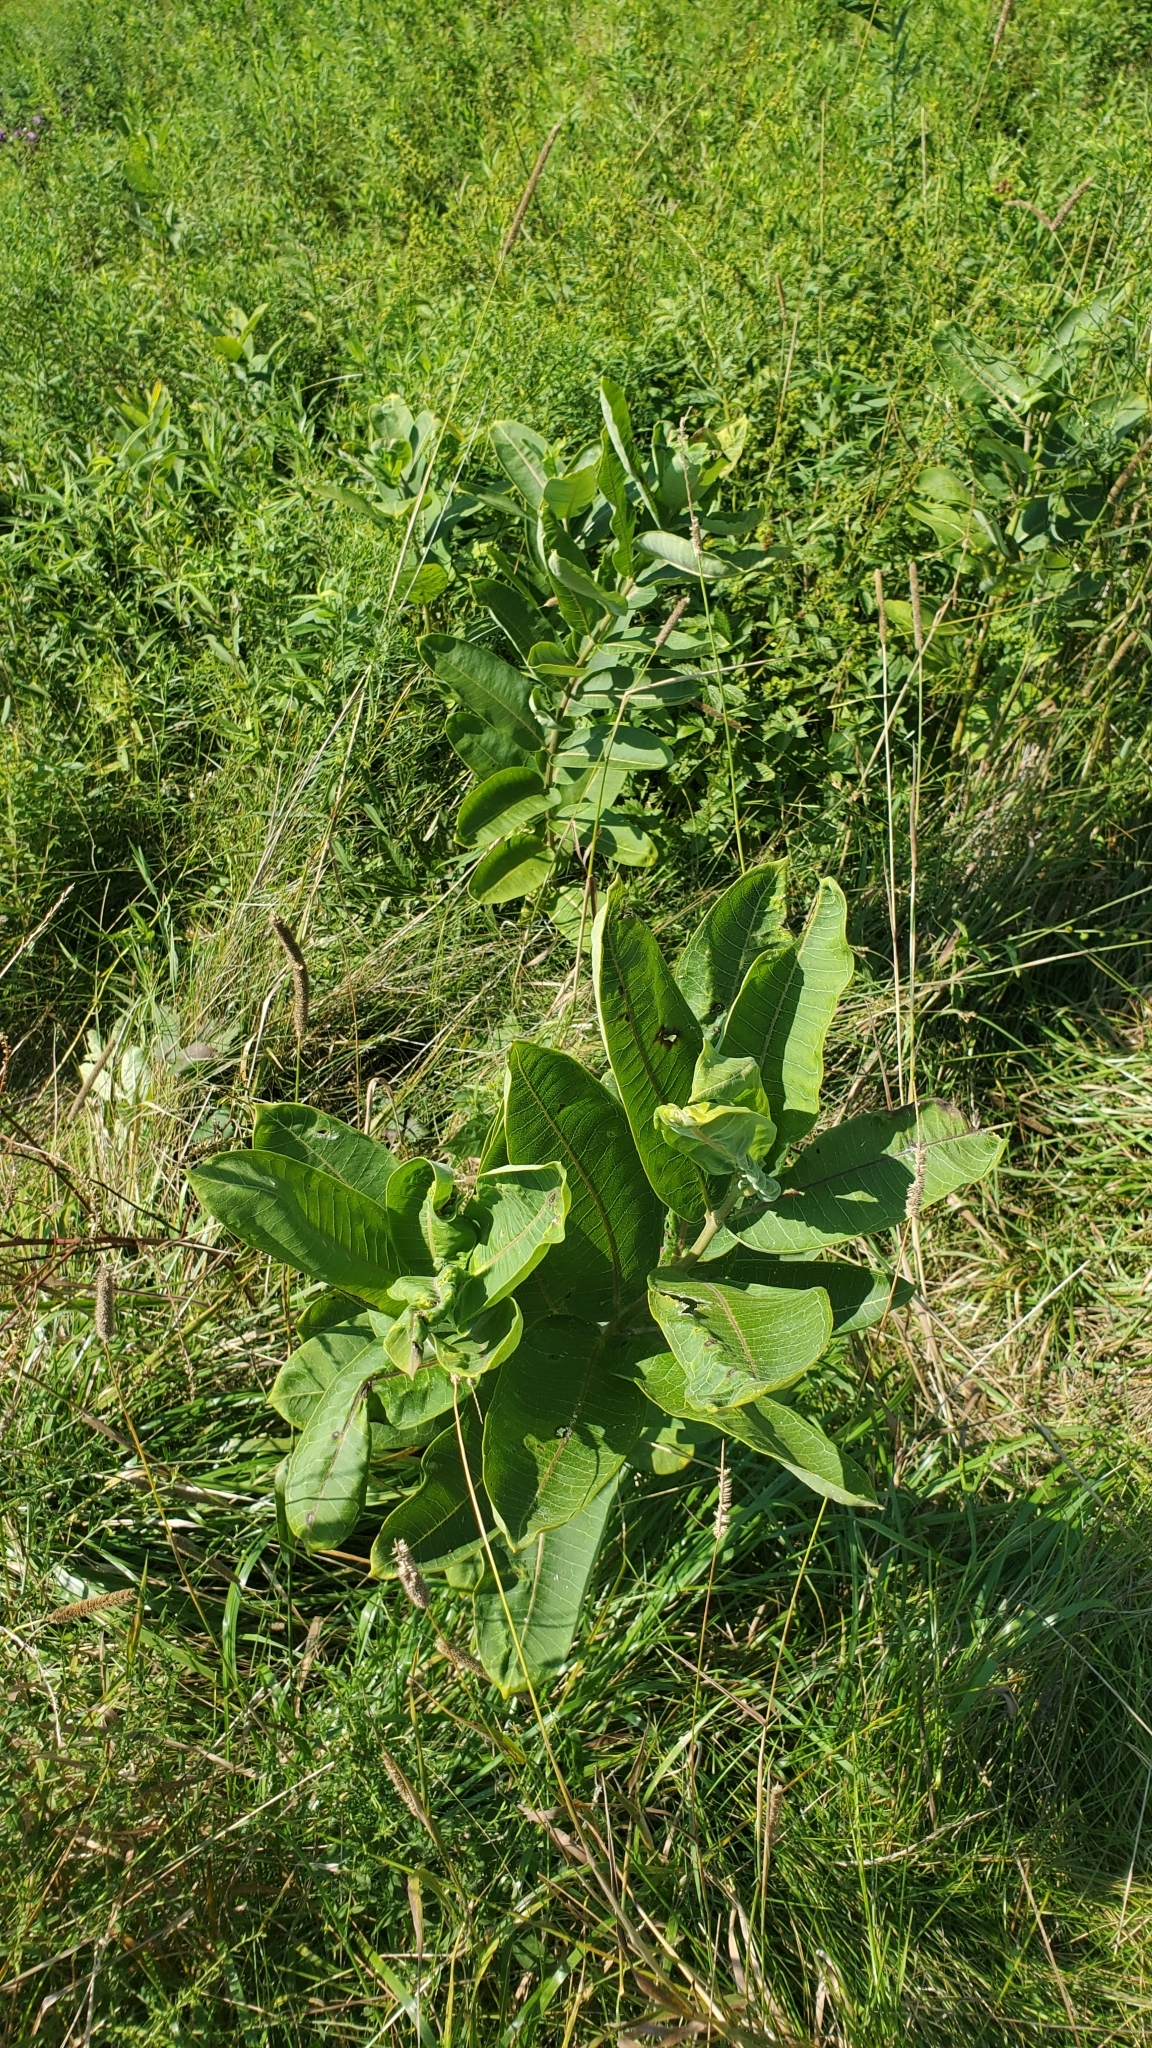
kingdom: Plantae
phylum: Tracheophyta
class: Magnoliopsida
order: Gentianales
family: Apocynaceae
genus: Asclepias
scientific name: Asclepias syriaca
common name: Common milkweed
